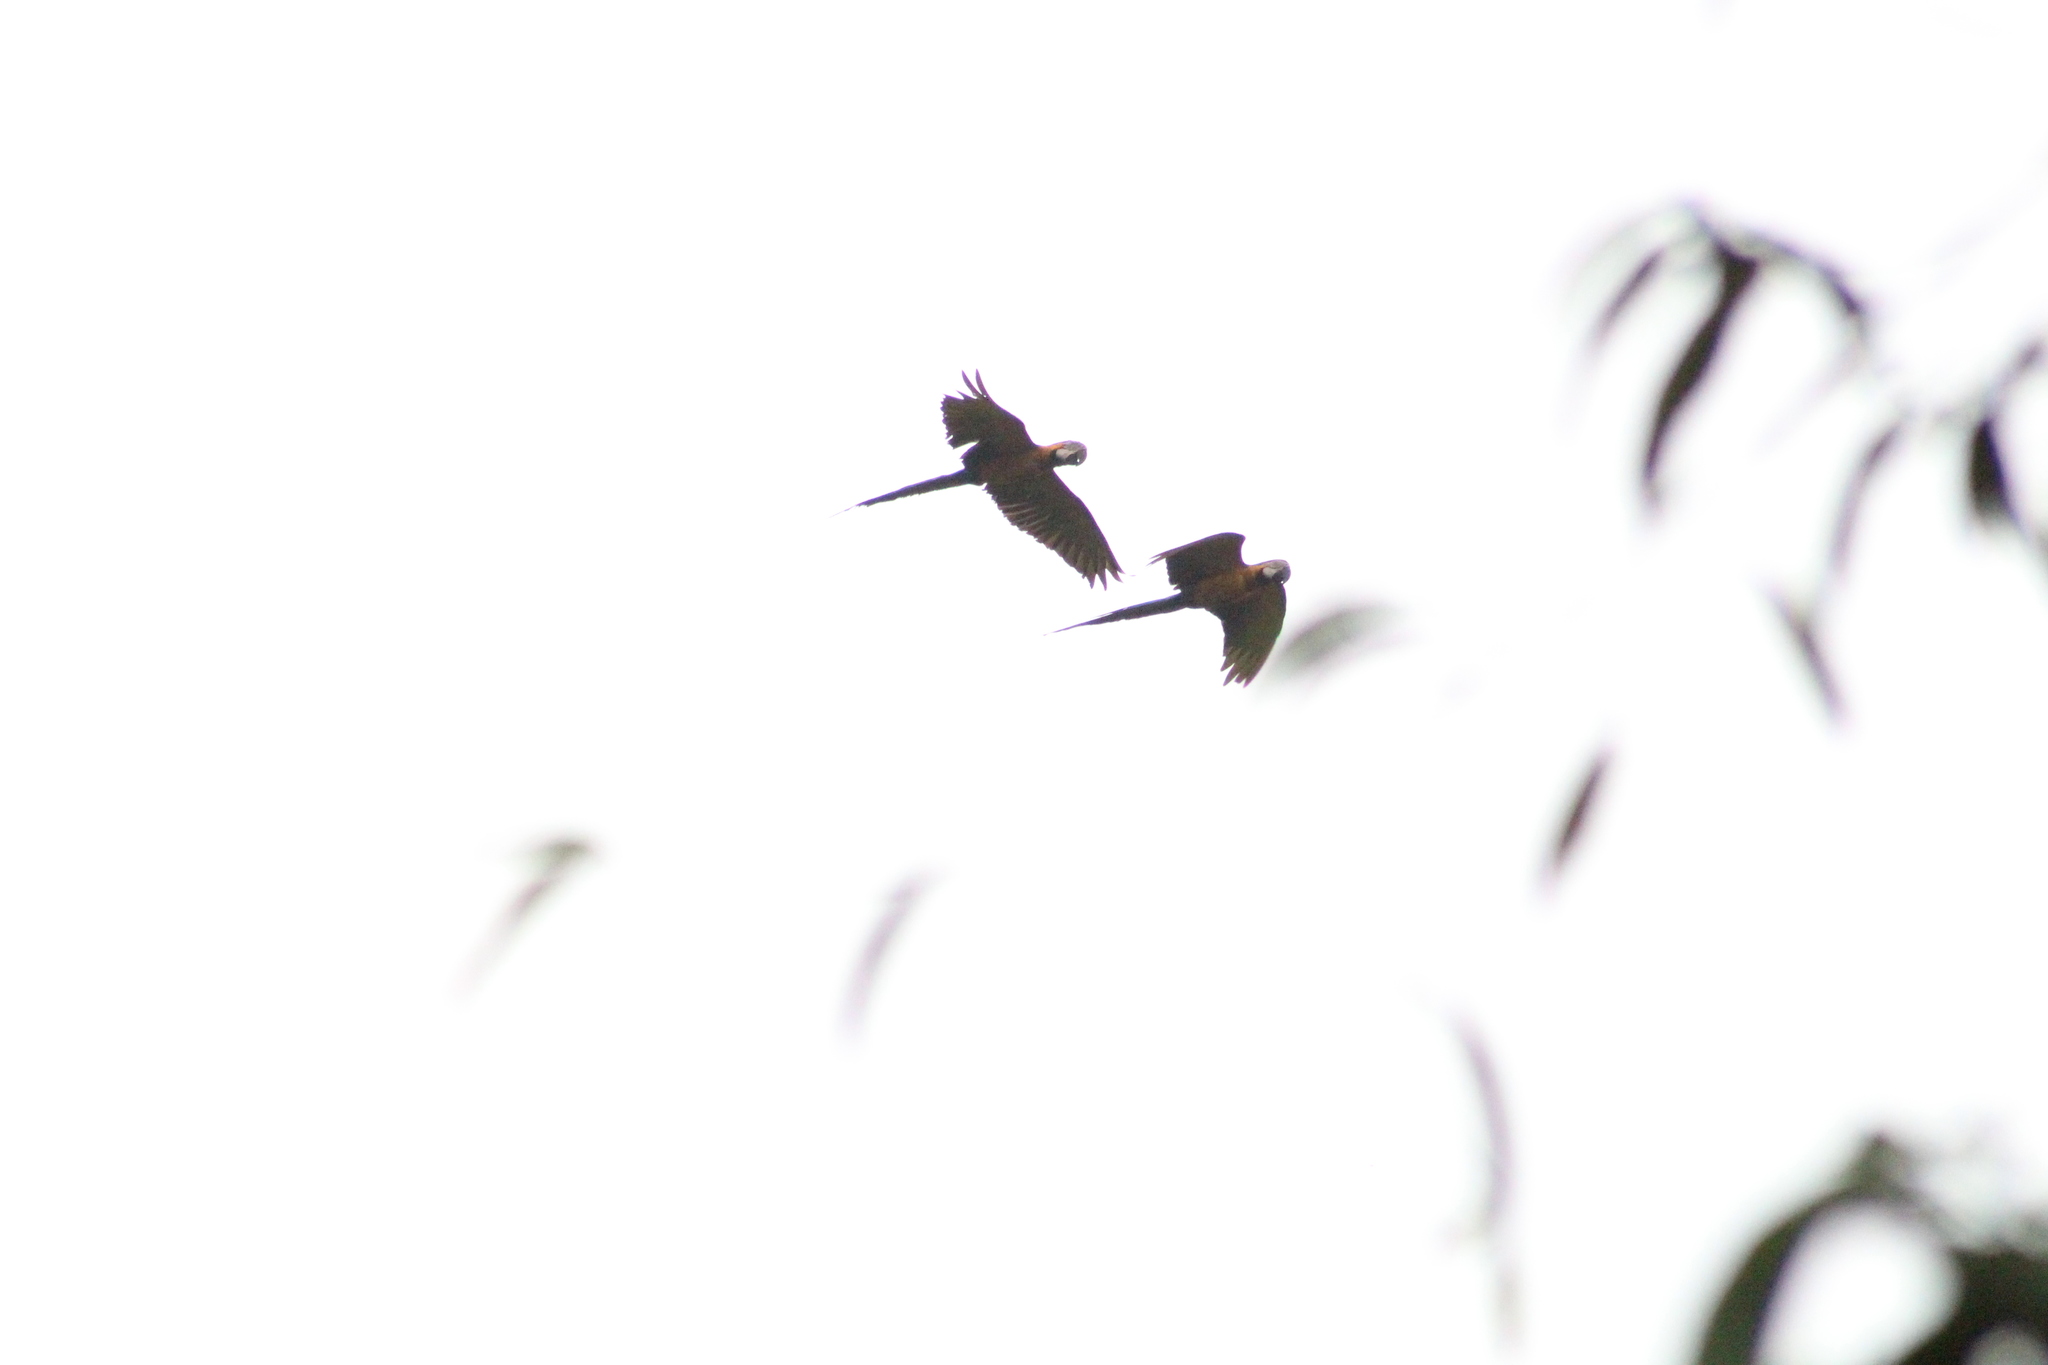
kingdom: Animalia
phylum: Chordata
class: Aves
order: Psittaciformes
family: Psittacidae
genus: Ara
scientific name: Ara ararauna
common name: Blue-and-yellow macaw
